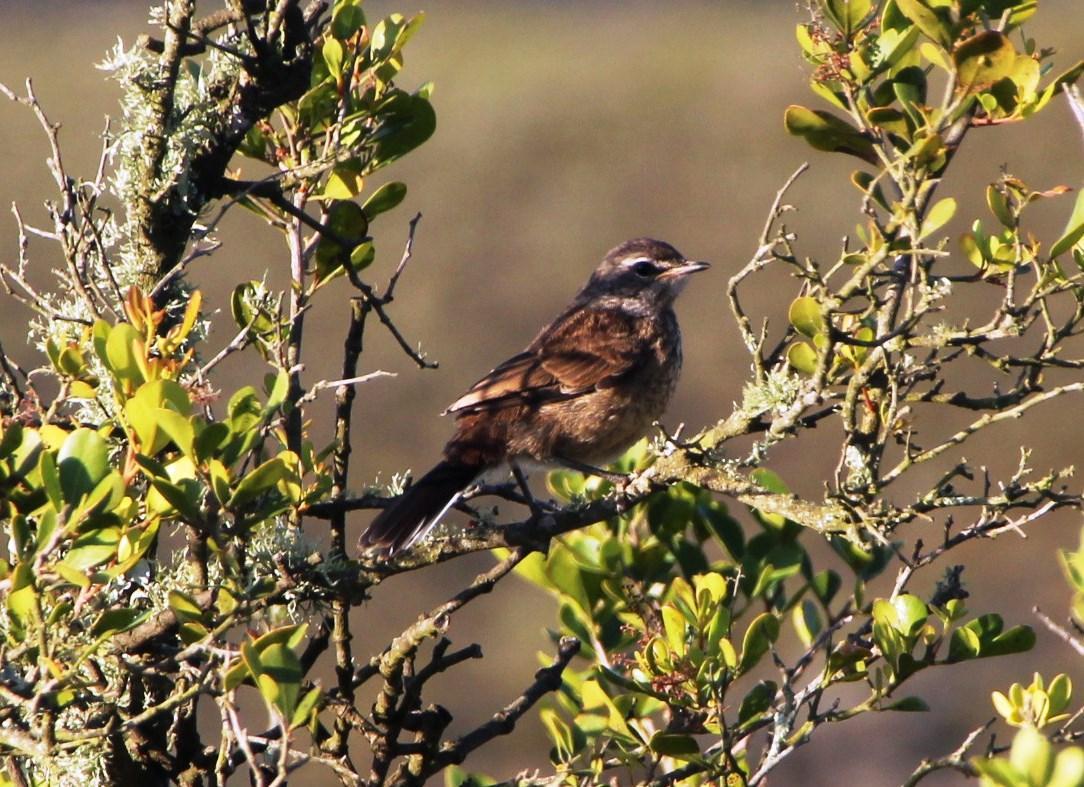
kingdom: Animalia
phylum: Chordata
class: Aves
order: Passeriformes
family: Muscicapidae
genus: Erythropygia
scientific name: Erythropygia coryphoeus
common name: Karoo scrub robin
